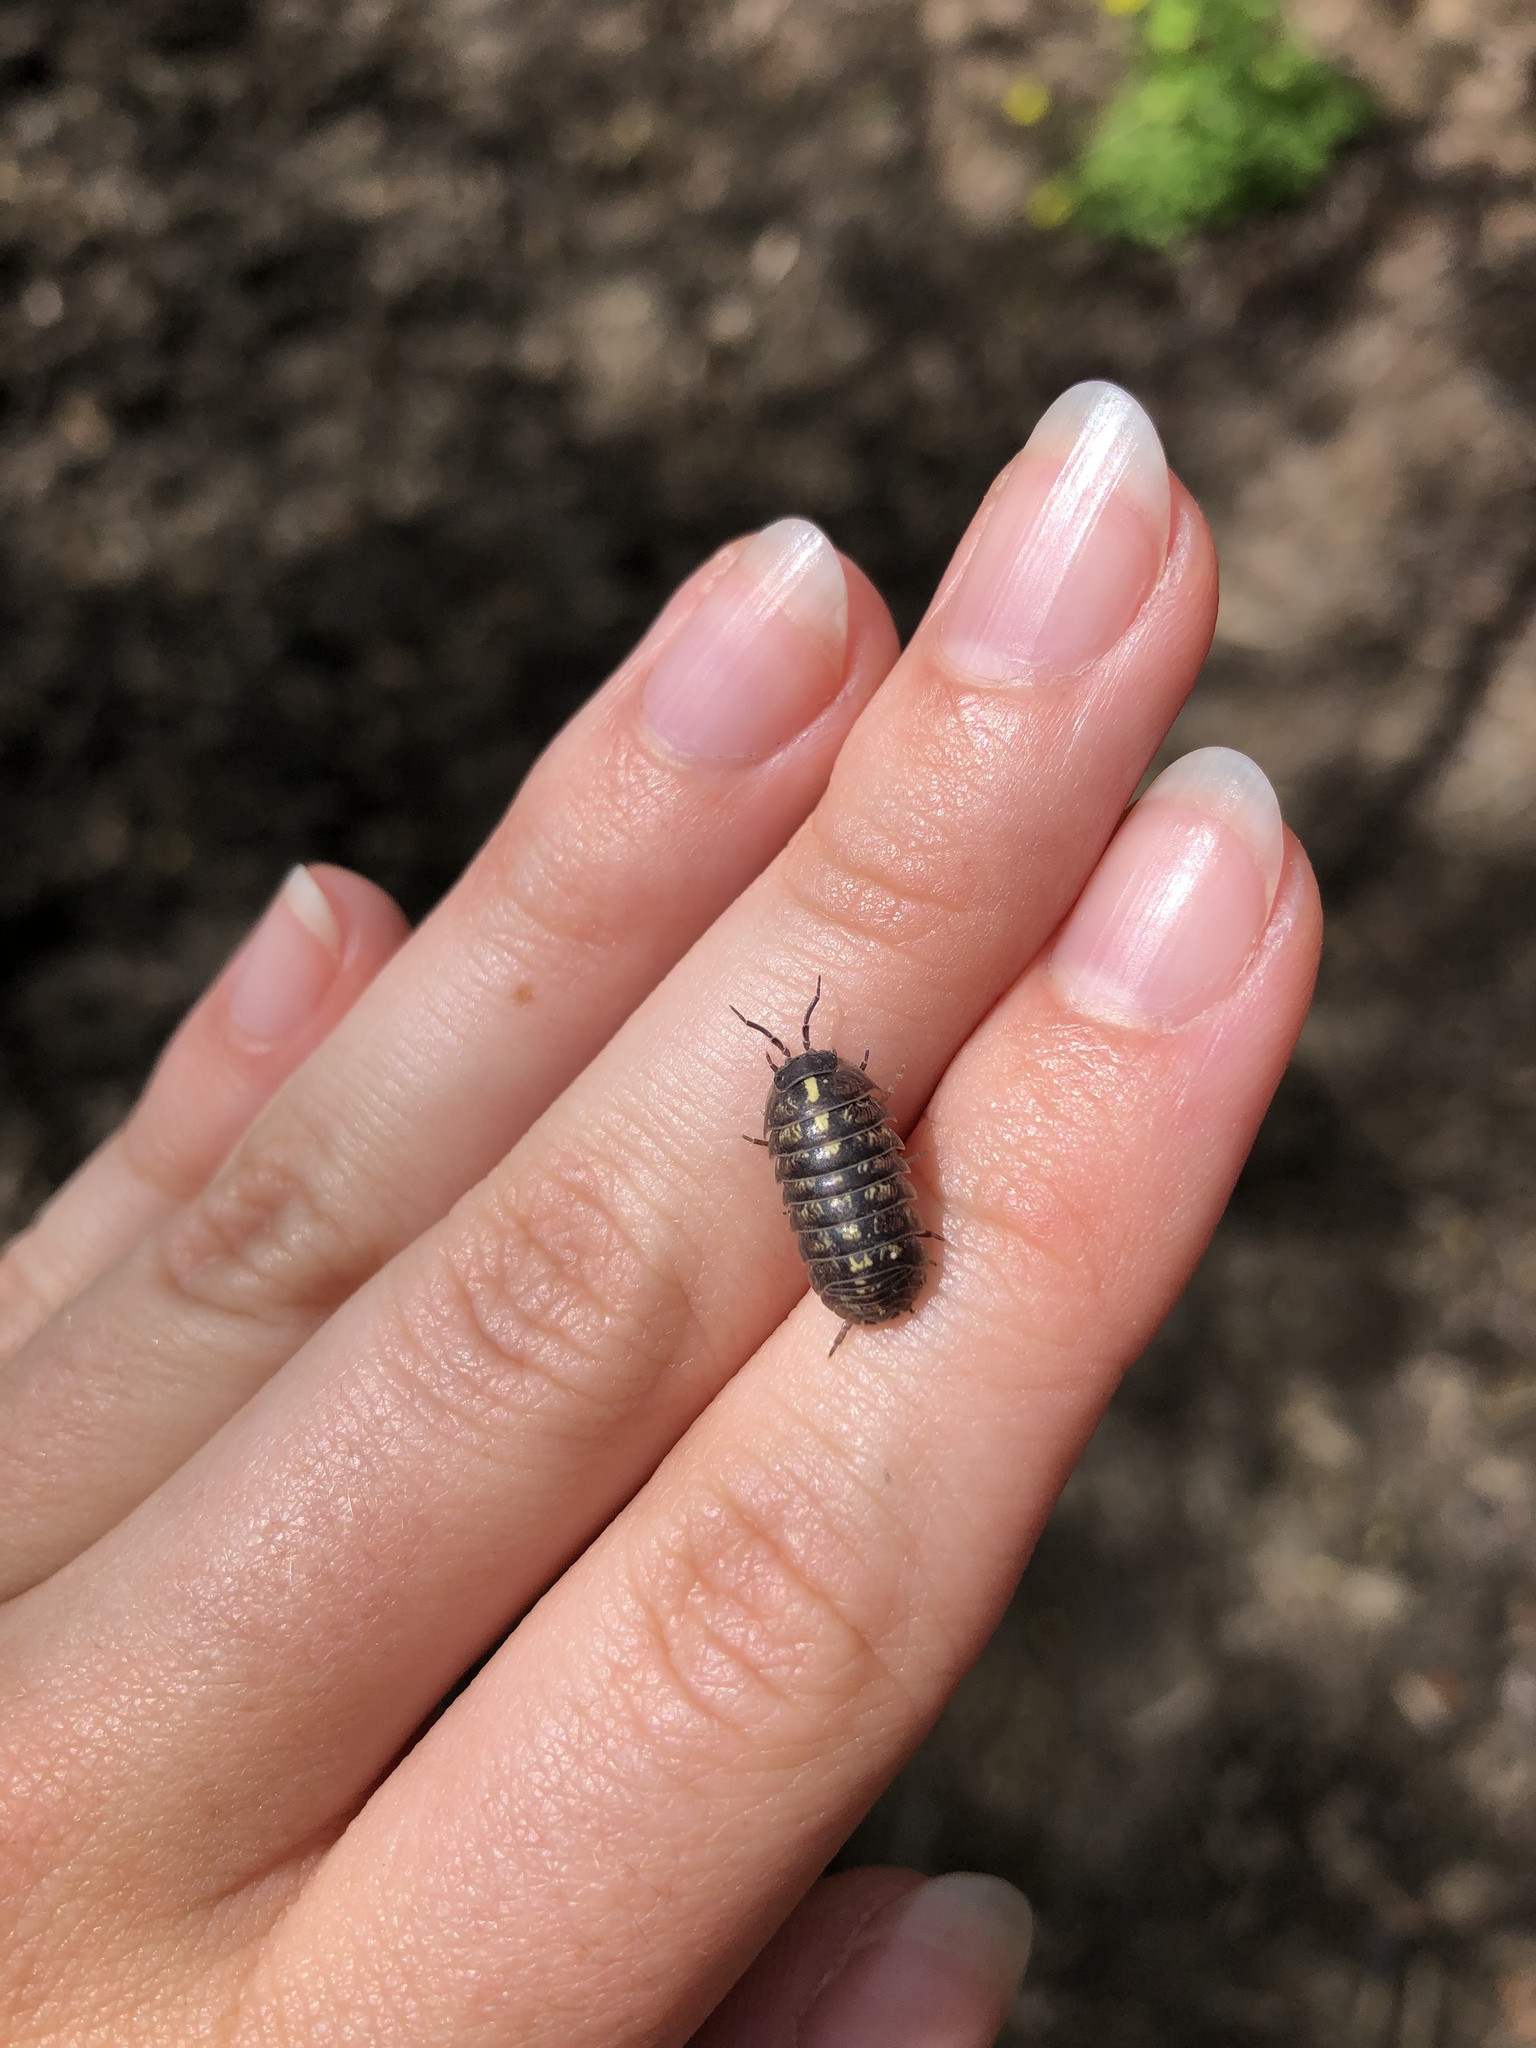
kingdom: Animalia
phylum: Arthropoda
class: Malacostraca
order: Isopoda
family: Armadillidiidae
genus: Armadillidium
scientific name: Armadillidium vulgare
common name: Common pill woodlouse
